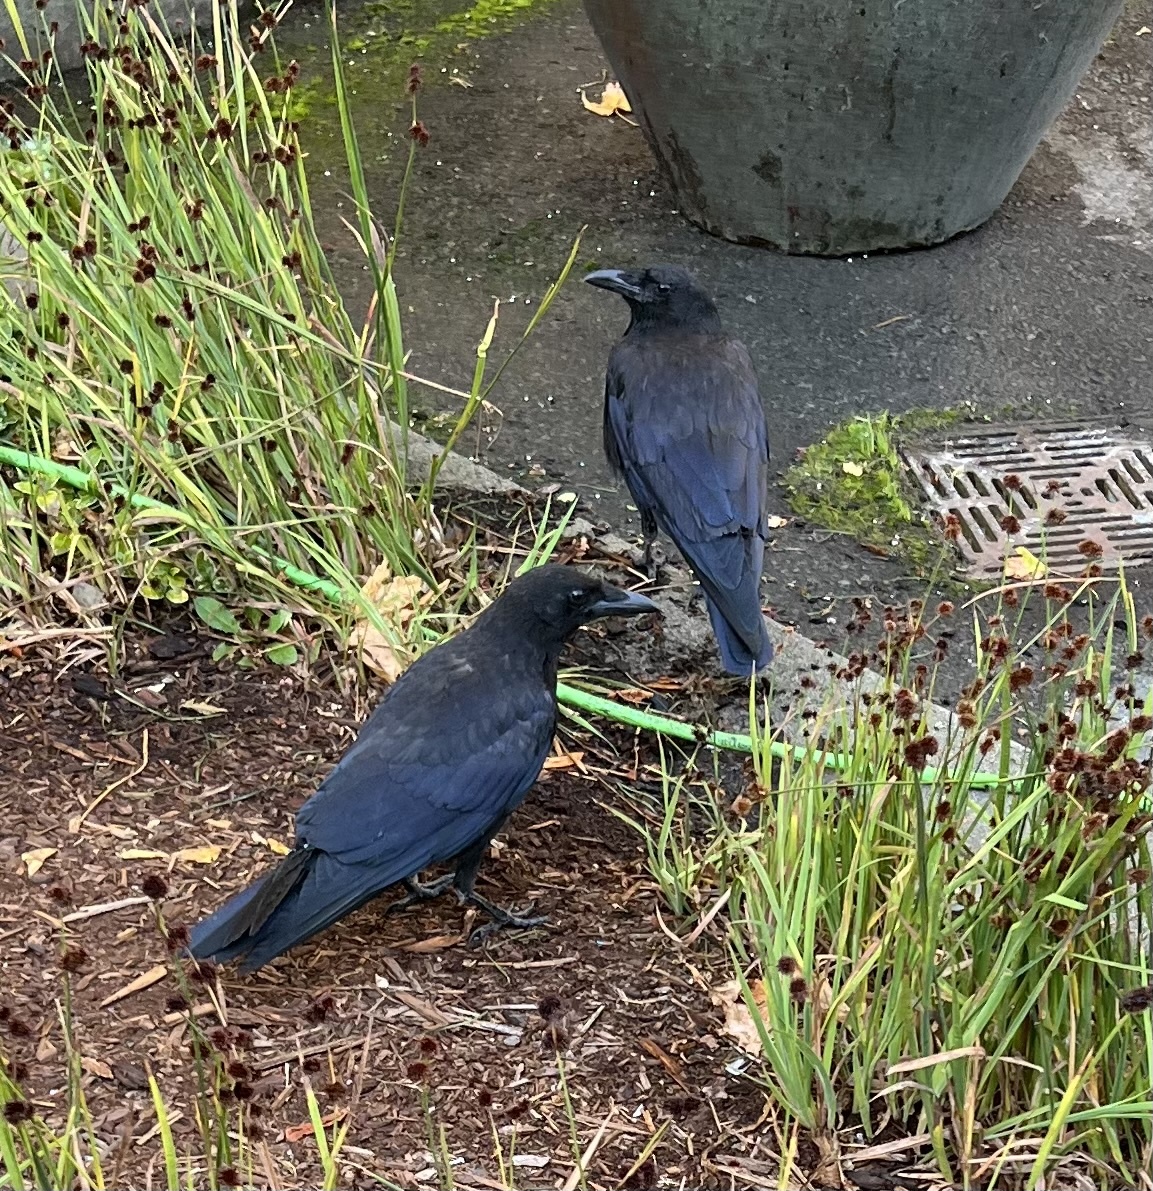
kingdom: Animalia
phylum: Chordata
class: Aves
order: Passeriformes
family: Corvidae
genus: Corvus
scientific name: Corvus brachyrhynchos
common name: American crow
